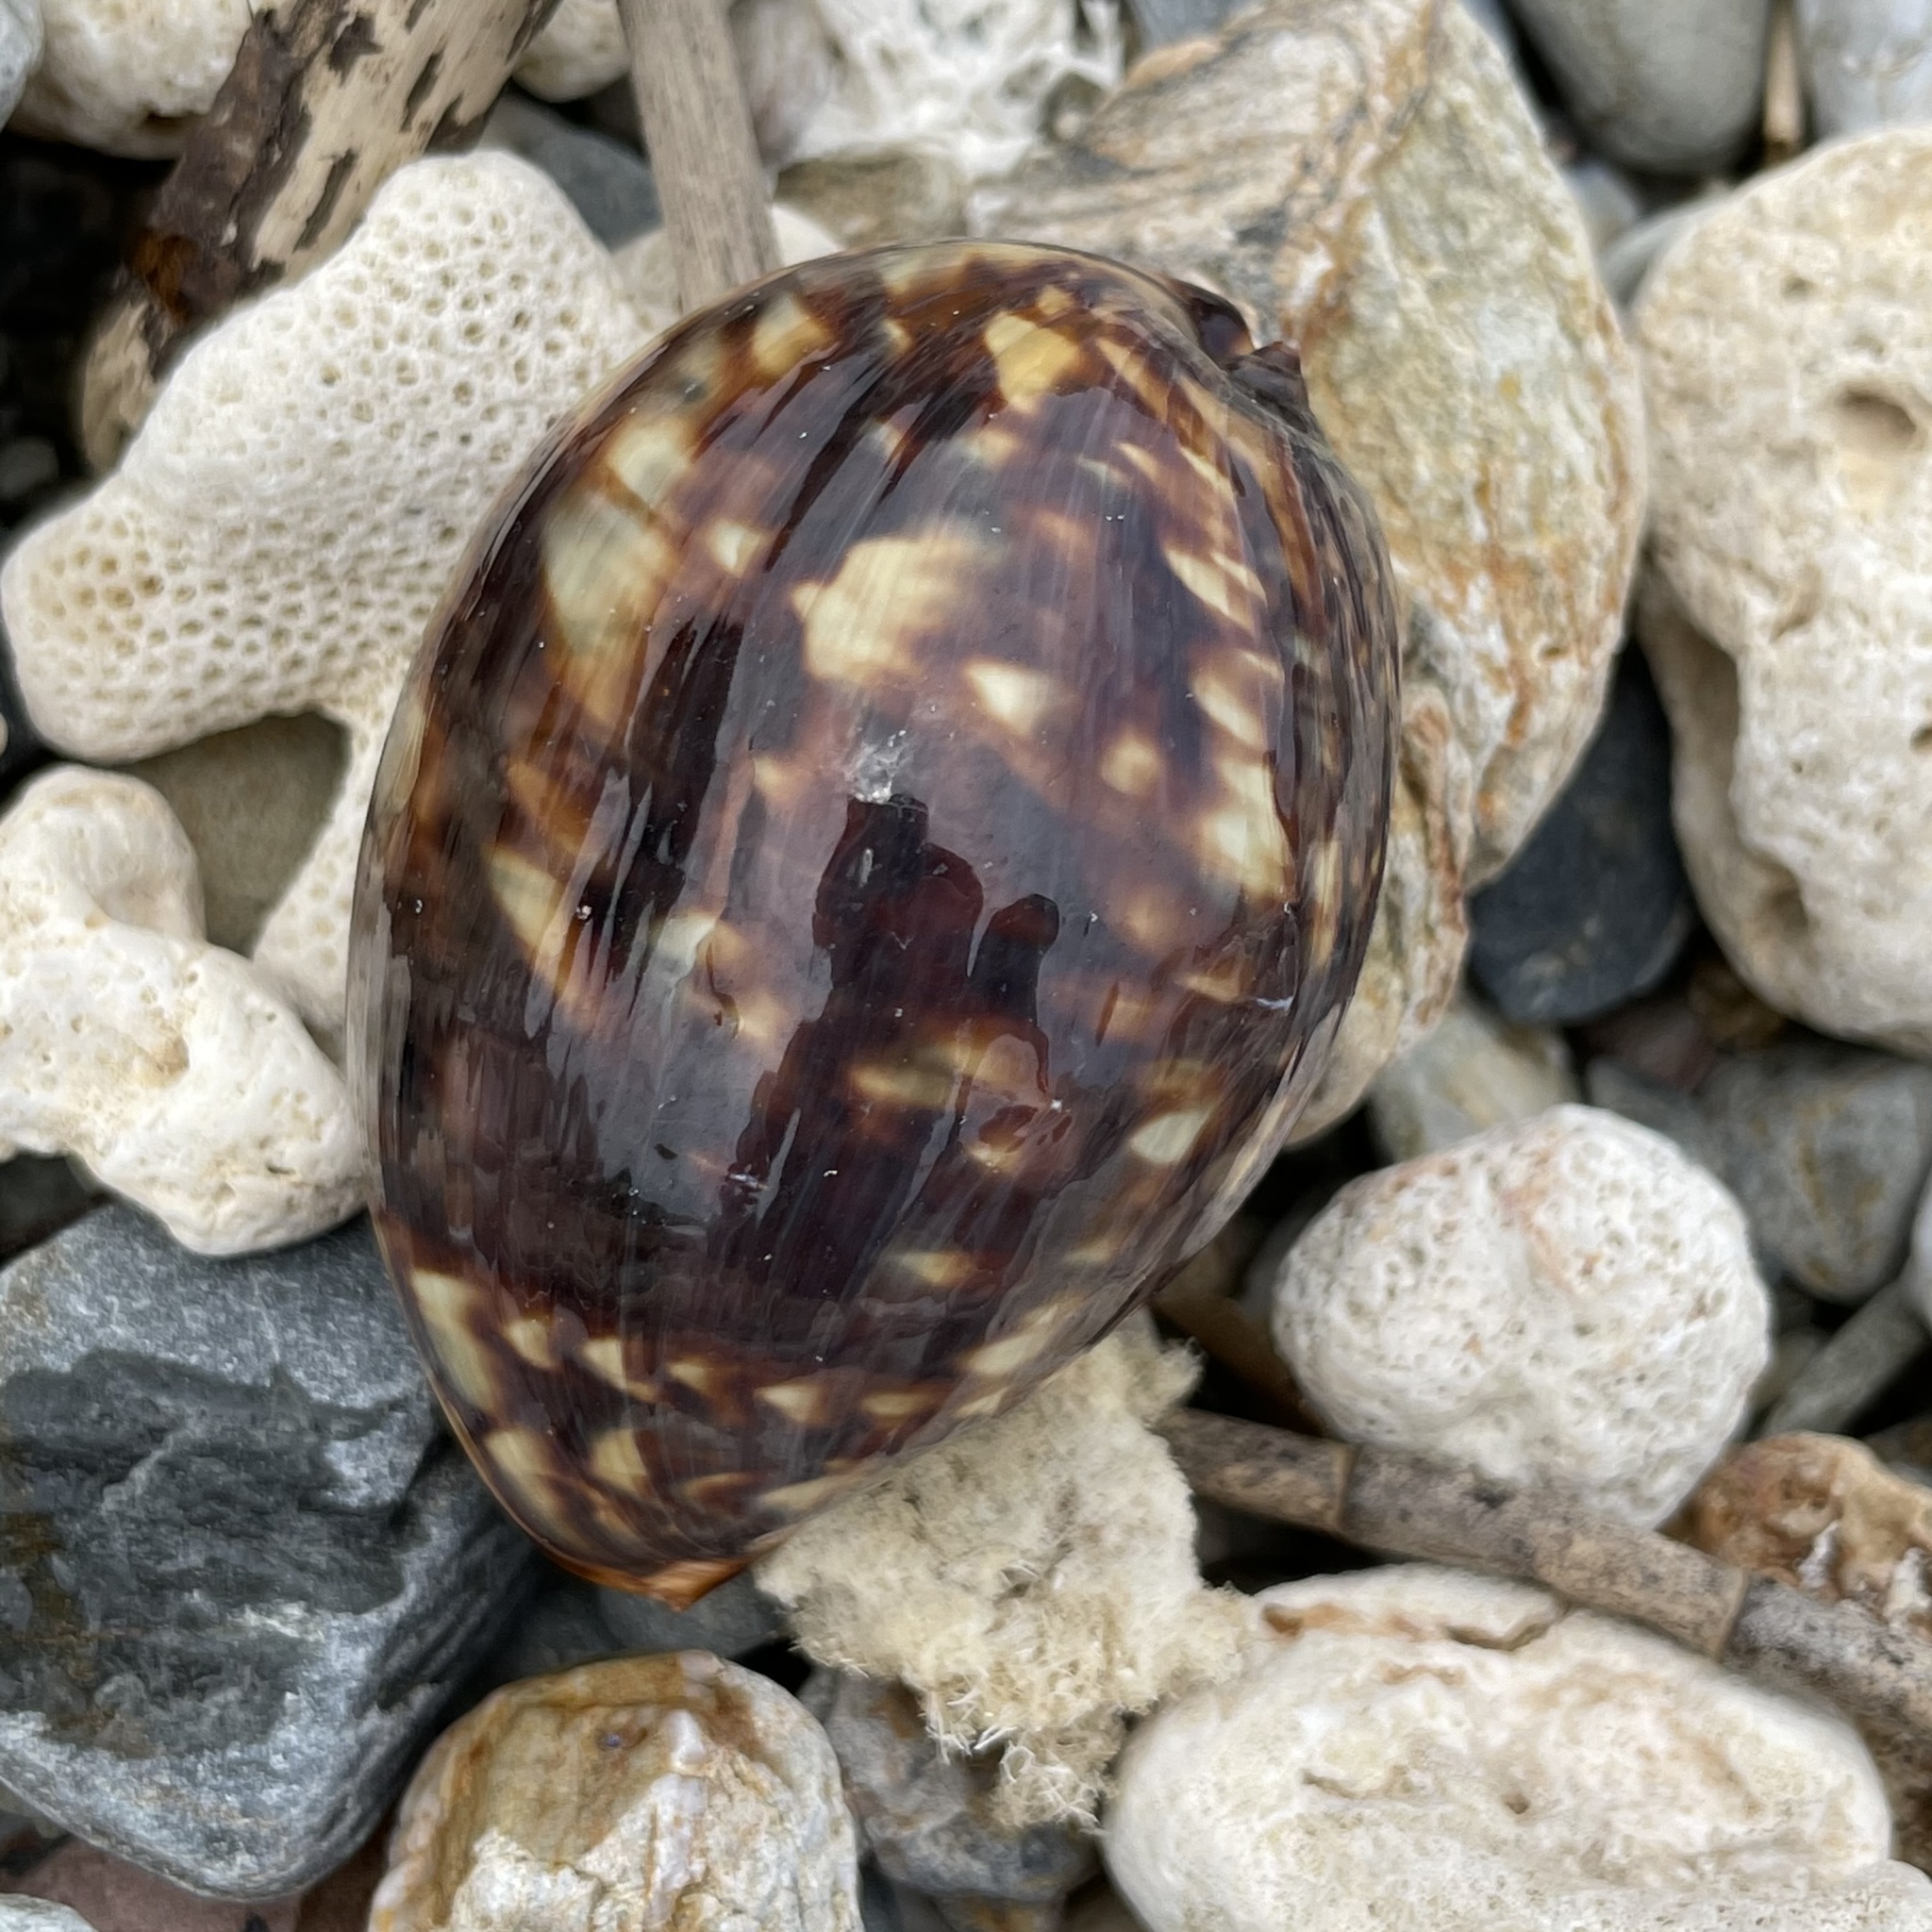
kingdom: Animalia
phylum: Mollusca
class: Gastropoda
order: Littorinimorpha
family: Cypraeidae
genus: Mauritia
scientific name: Mauritia mauritiana
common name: Hump-backed cowrie
